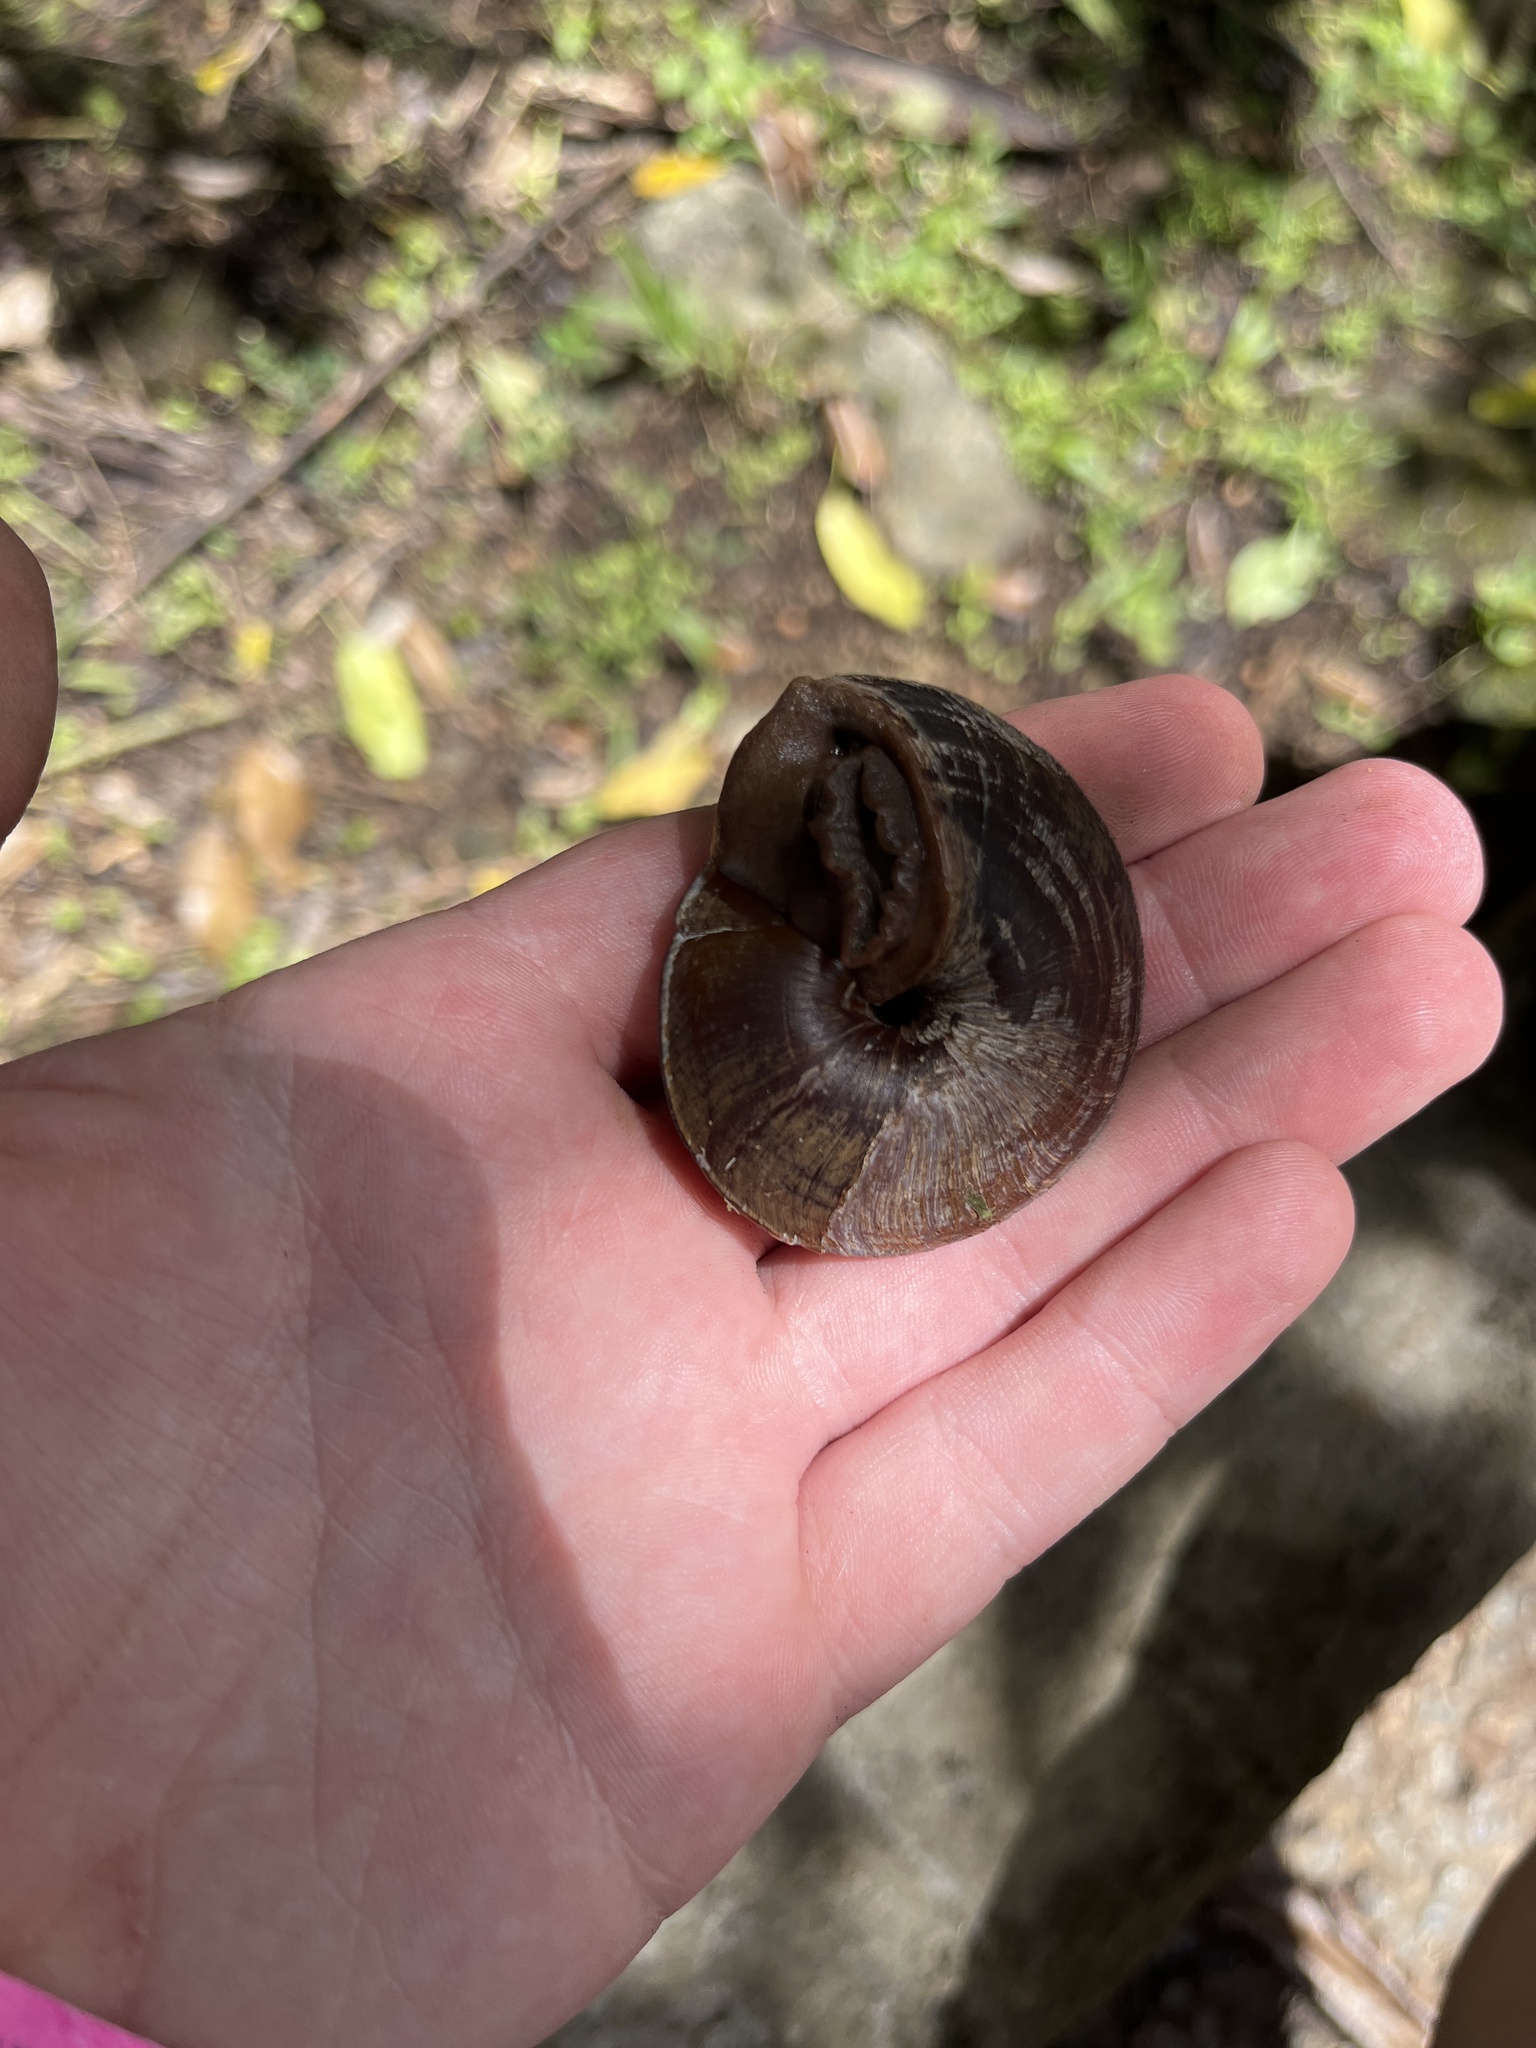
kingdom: Animalia
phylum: Mollusca
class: Gastropoda
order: Stylommatophora
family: Solaropsidae
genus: Caracolus
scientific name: Caracolus carocolla
